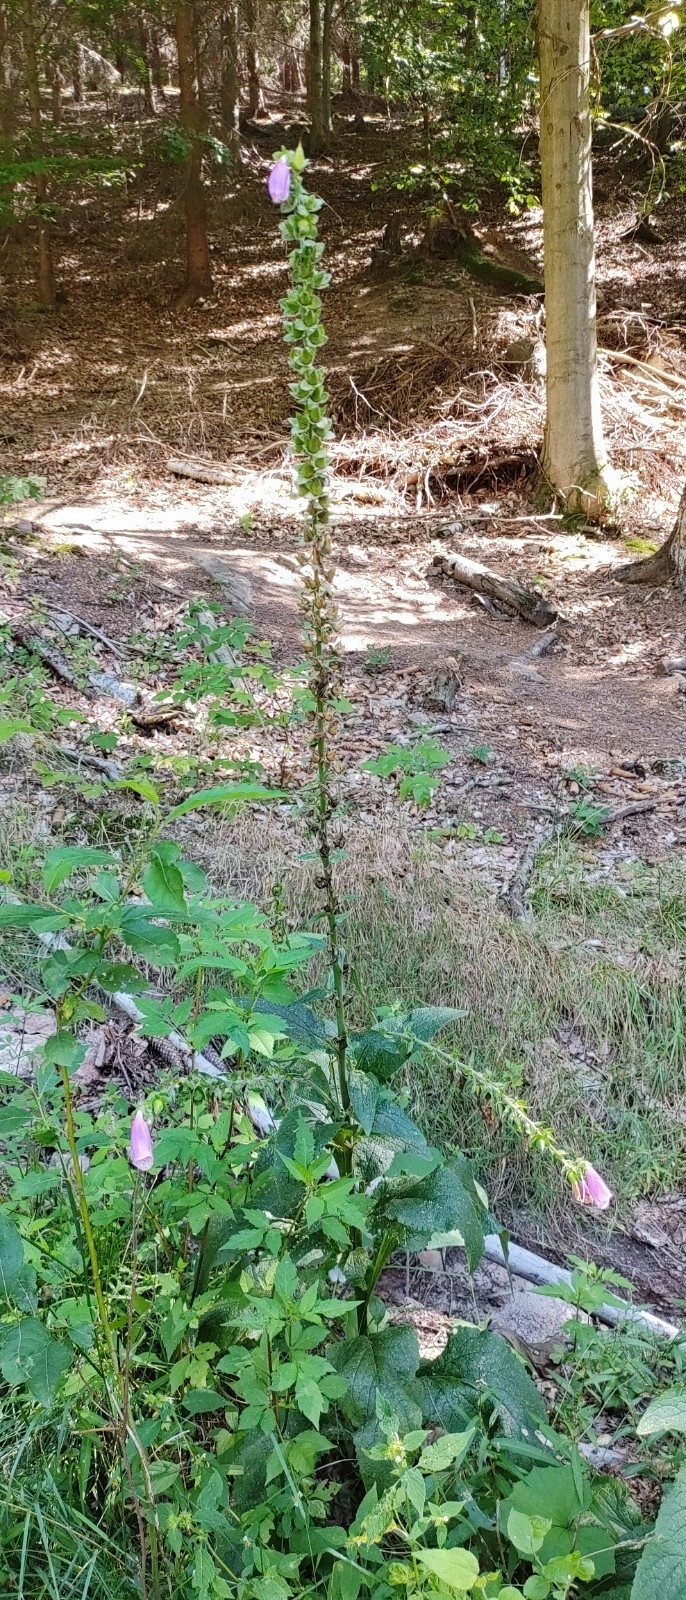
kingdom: Plantae
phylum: Tracheophyta
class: Magnoliopsida
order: Lamiales
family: Plantaginaceae
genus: Digitalis
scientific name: Digitalis purpurea
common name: Foxglove
